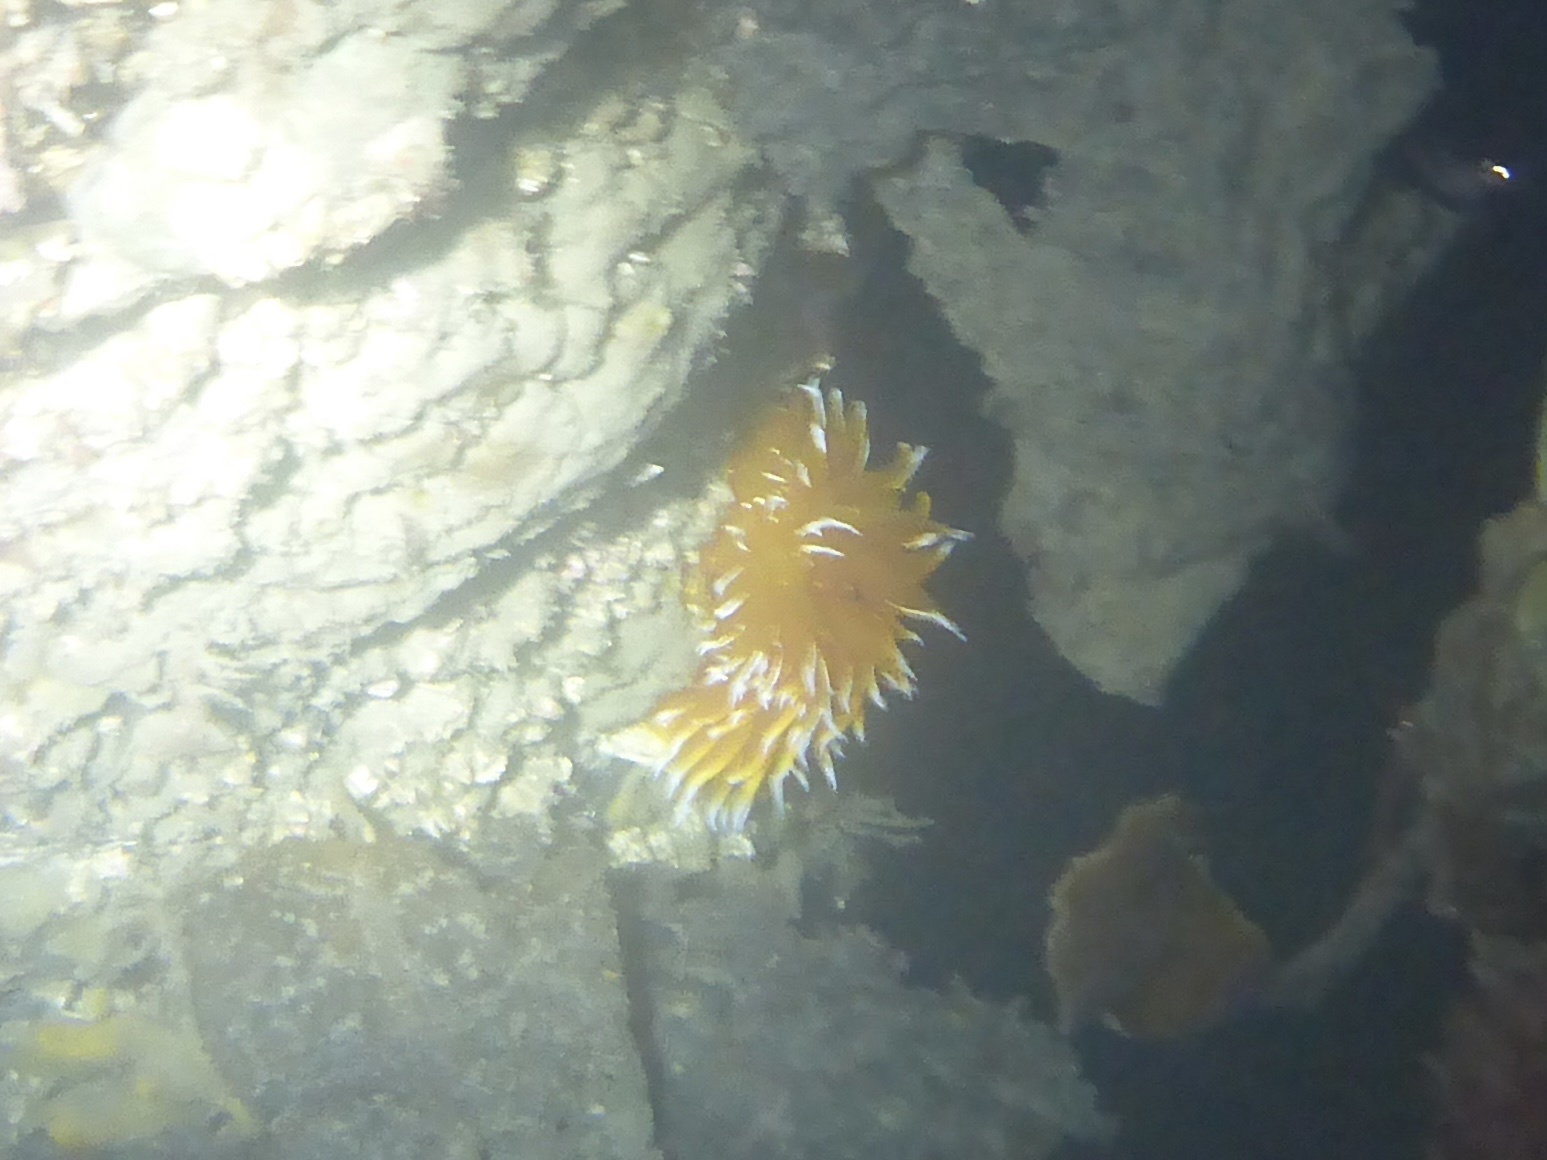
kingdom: Animalia
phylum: Mollusca
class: Gastropoda
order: Nudibranchia
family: Dironidae
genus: Dirona
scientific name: Dirona pellucida
